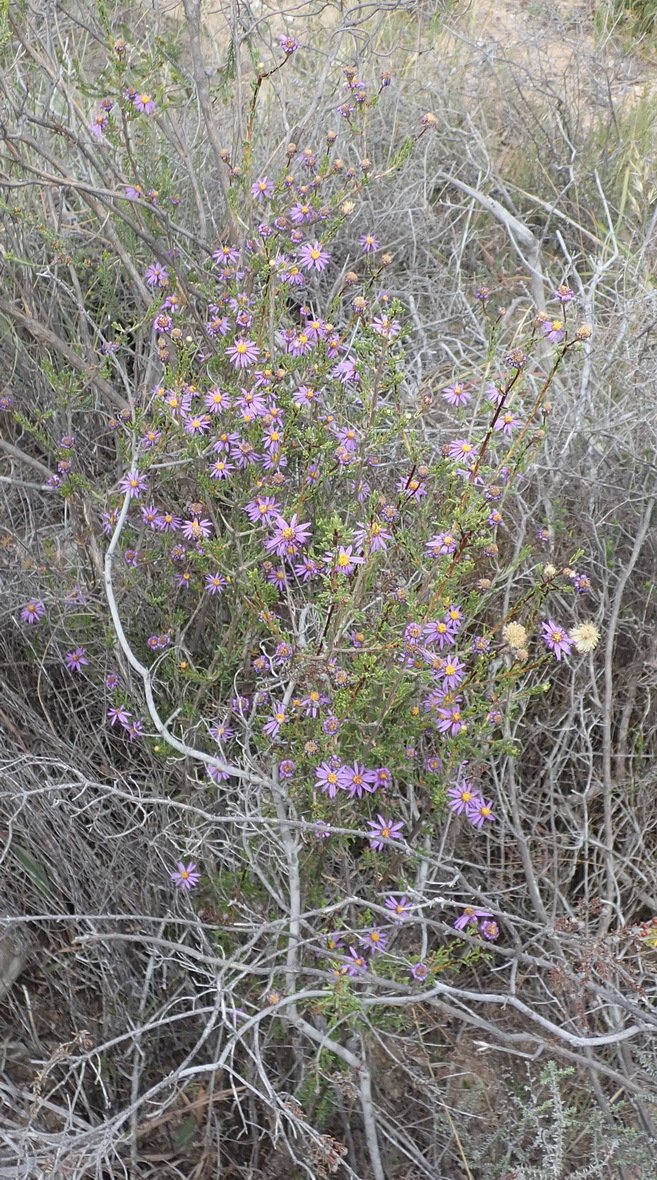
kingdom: Plantae
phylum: Tracheophyta
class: Magnoliopsida
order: Asterales
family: Asteraceae
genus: Felicia
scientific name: Felicia filifolia
